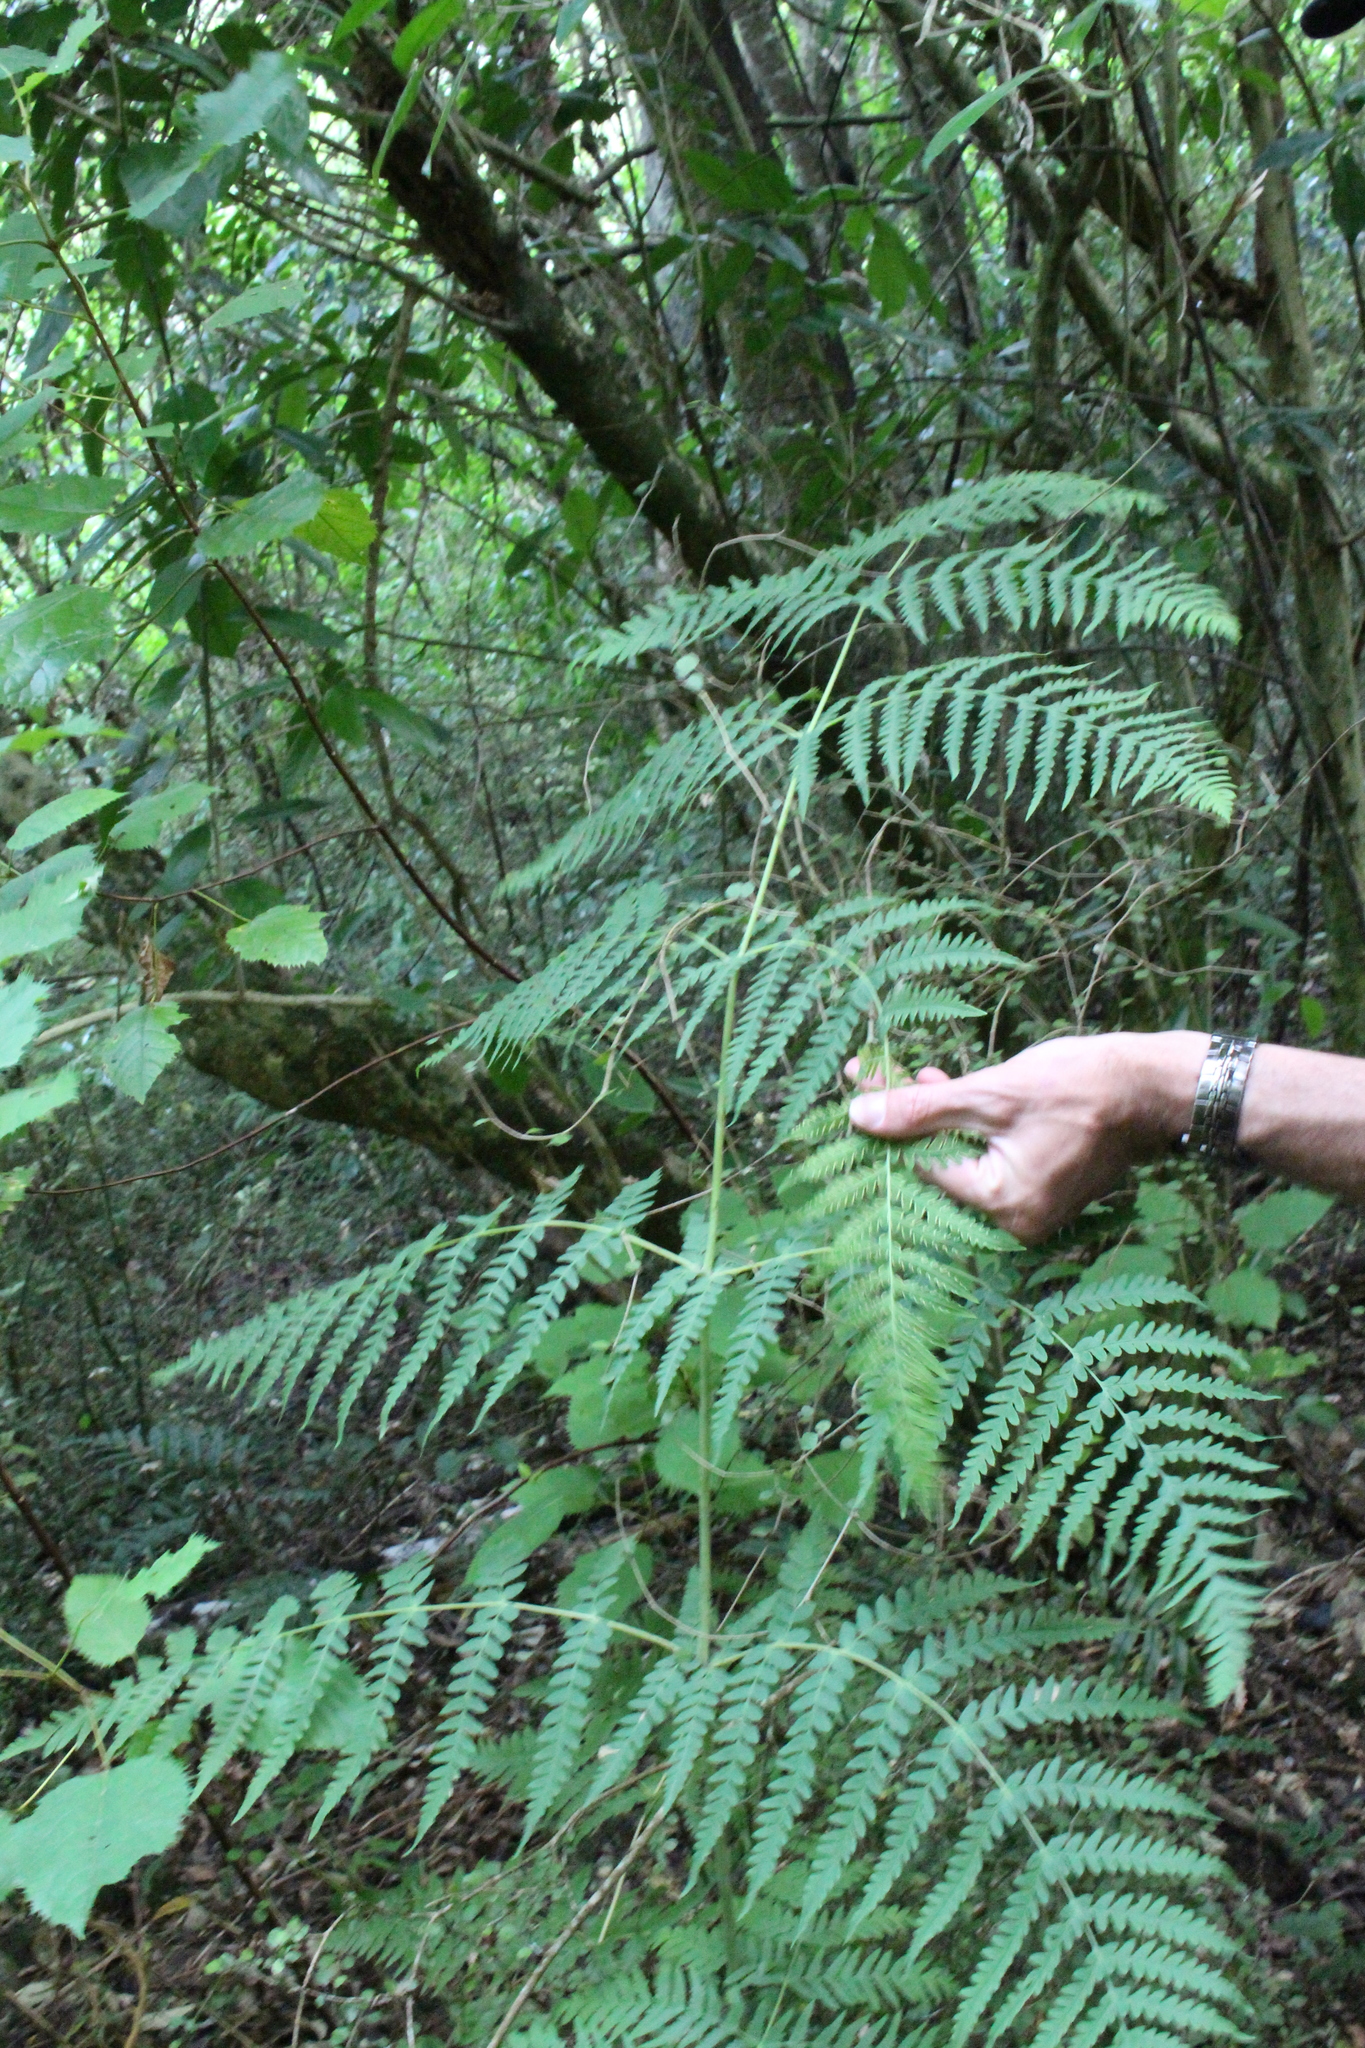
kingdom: Plantae
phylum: Tracheophyta
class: Polypodiopsida
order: Polypodiales
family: Dennstaedtiaceae
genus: Histiopteris
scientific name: Histiopteris incisa
